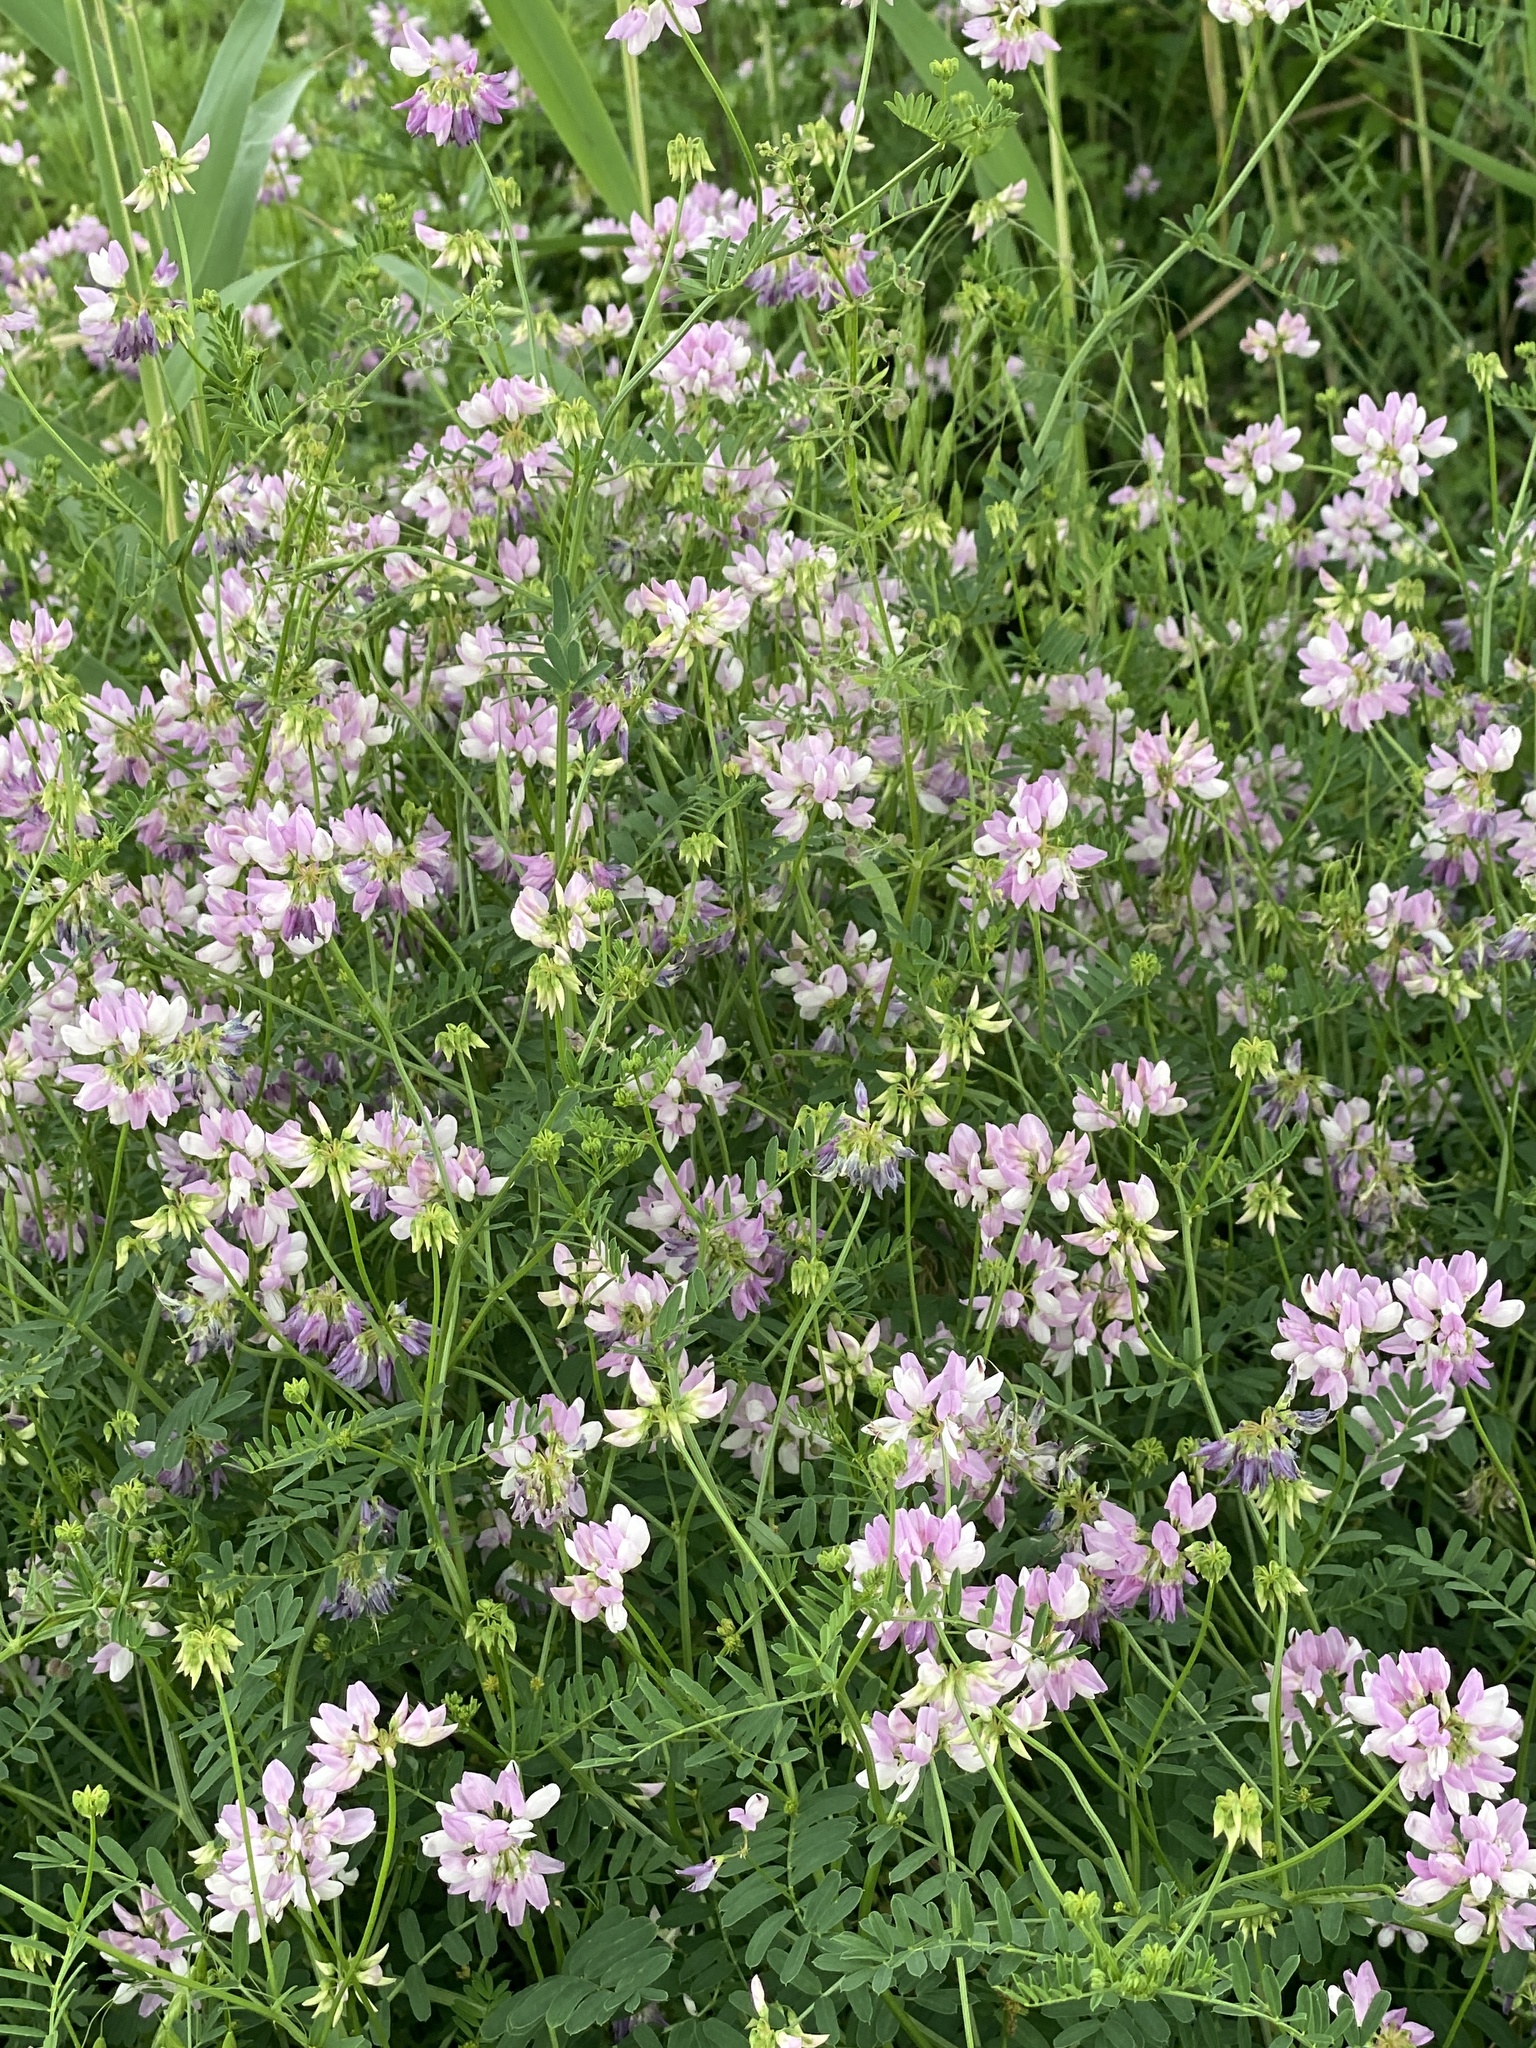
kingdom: Plantae
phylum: Tracheophyta
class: Magnoliopsida
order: Fabales
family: Fabaceae
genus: Coronilla
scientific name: Coronilla varia
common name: Crownvetch
